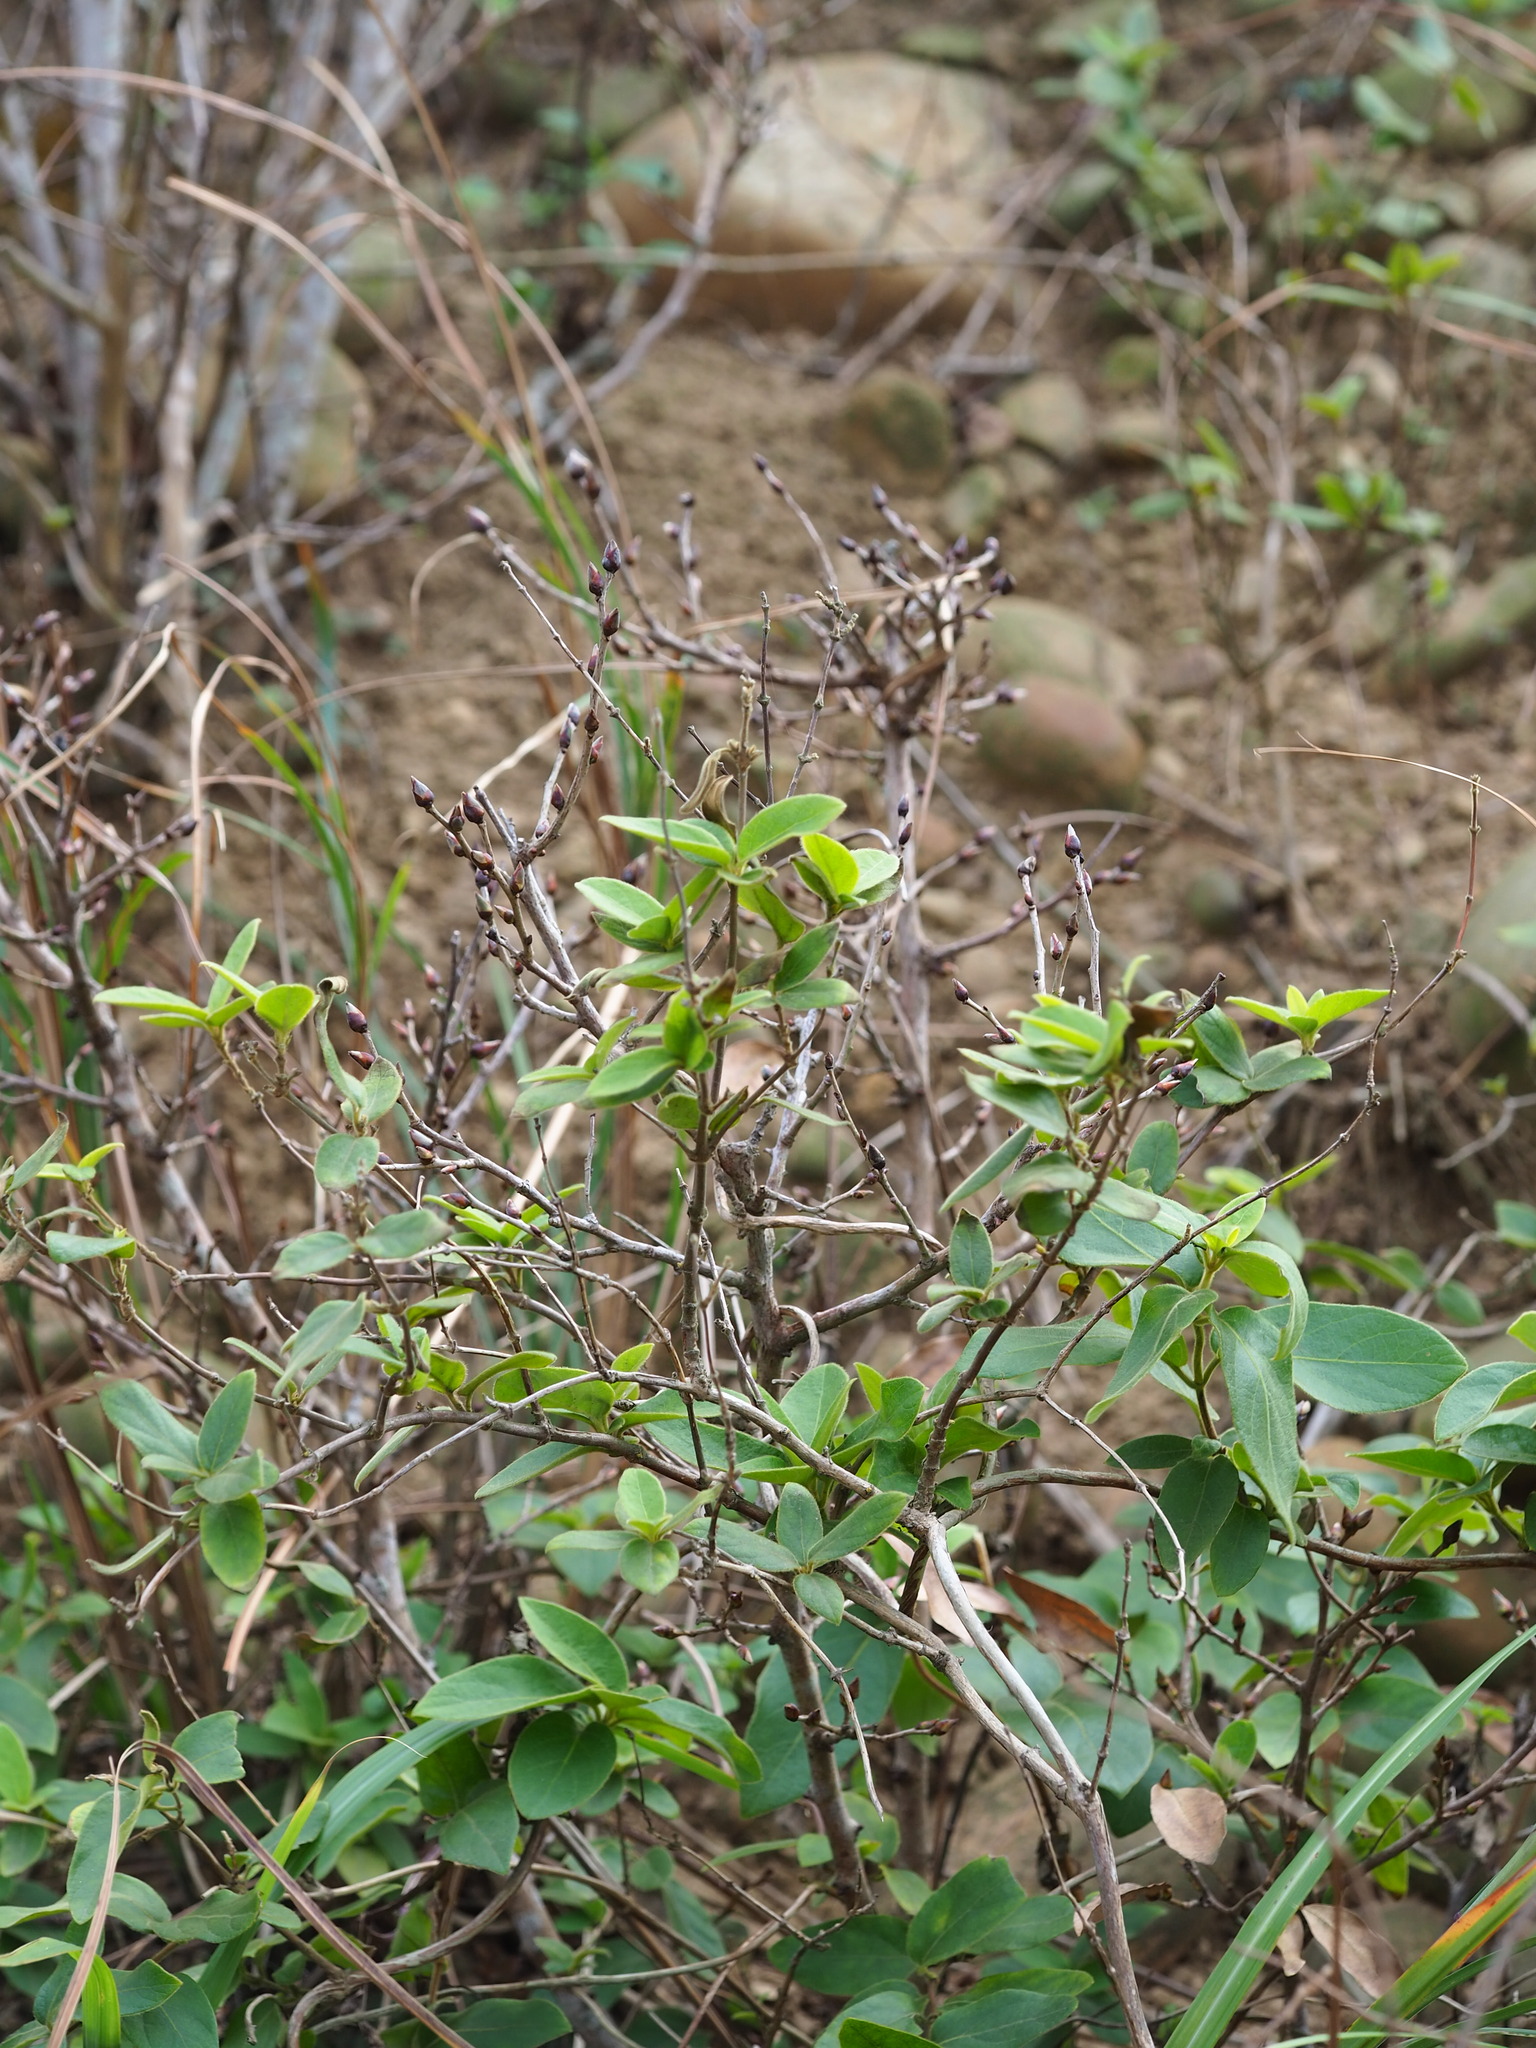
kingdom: Plantae
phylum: Tracheophyta
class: Magnoliopsida
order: Malvales
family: Thymelaeaceae
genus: Wikstroemia
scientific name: Wikstroemia indica
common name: Tiebush
